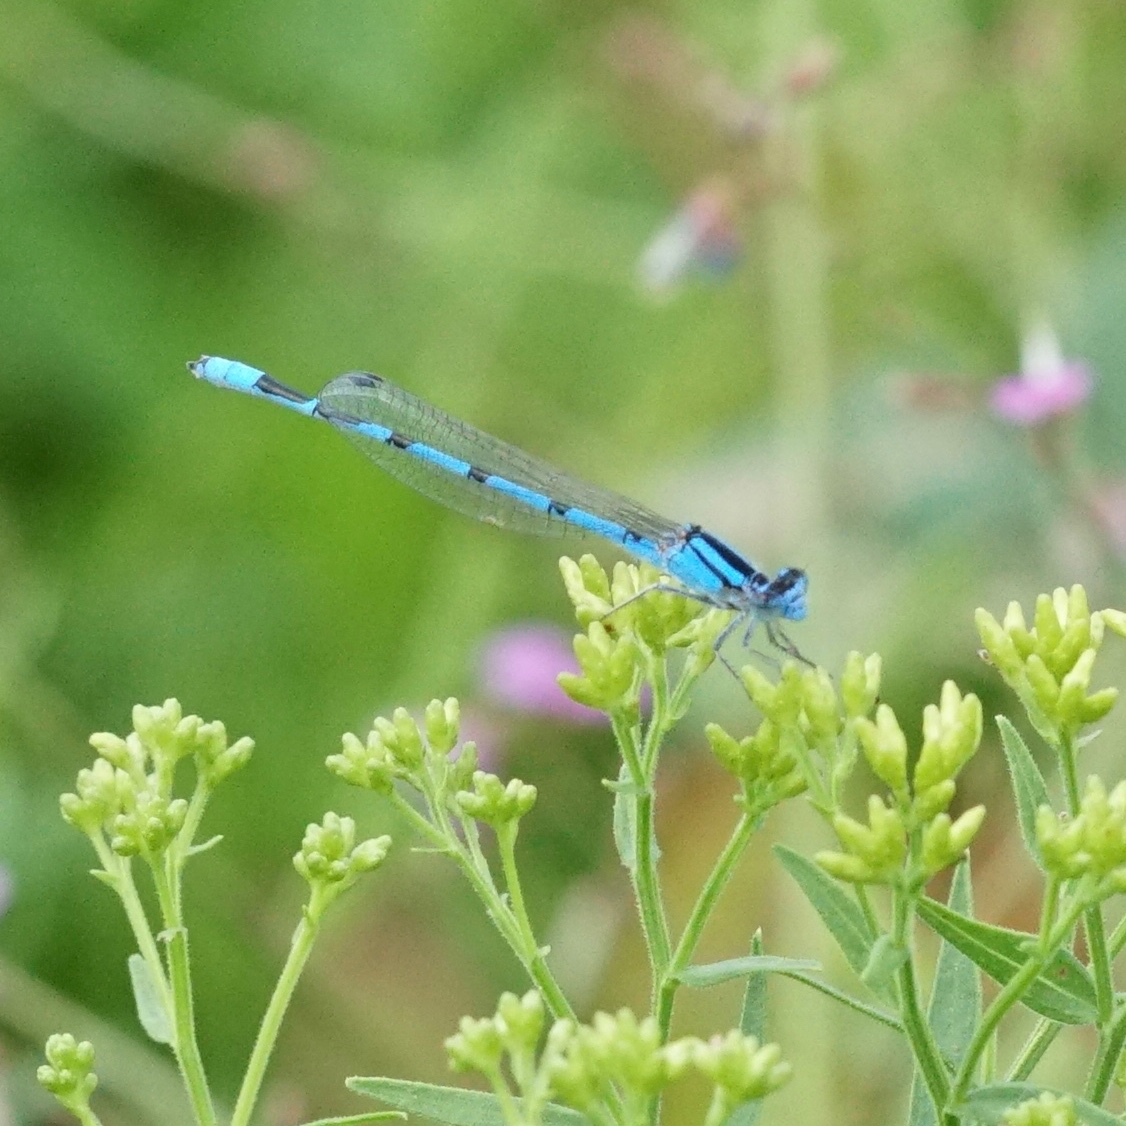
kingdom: Animalia
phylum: Arthropoda
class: Insecta
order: Odonata
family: Coenagrionidae
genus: Enallagma
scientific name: Enallagma civile
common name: Damselfly
